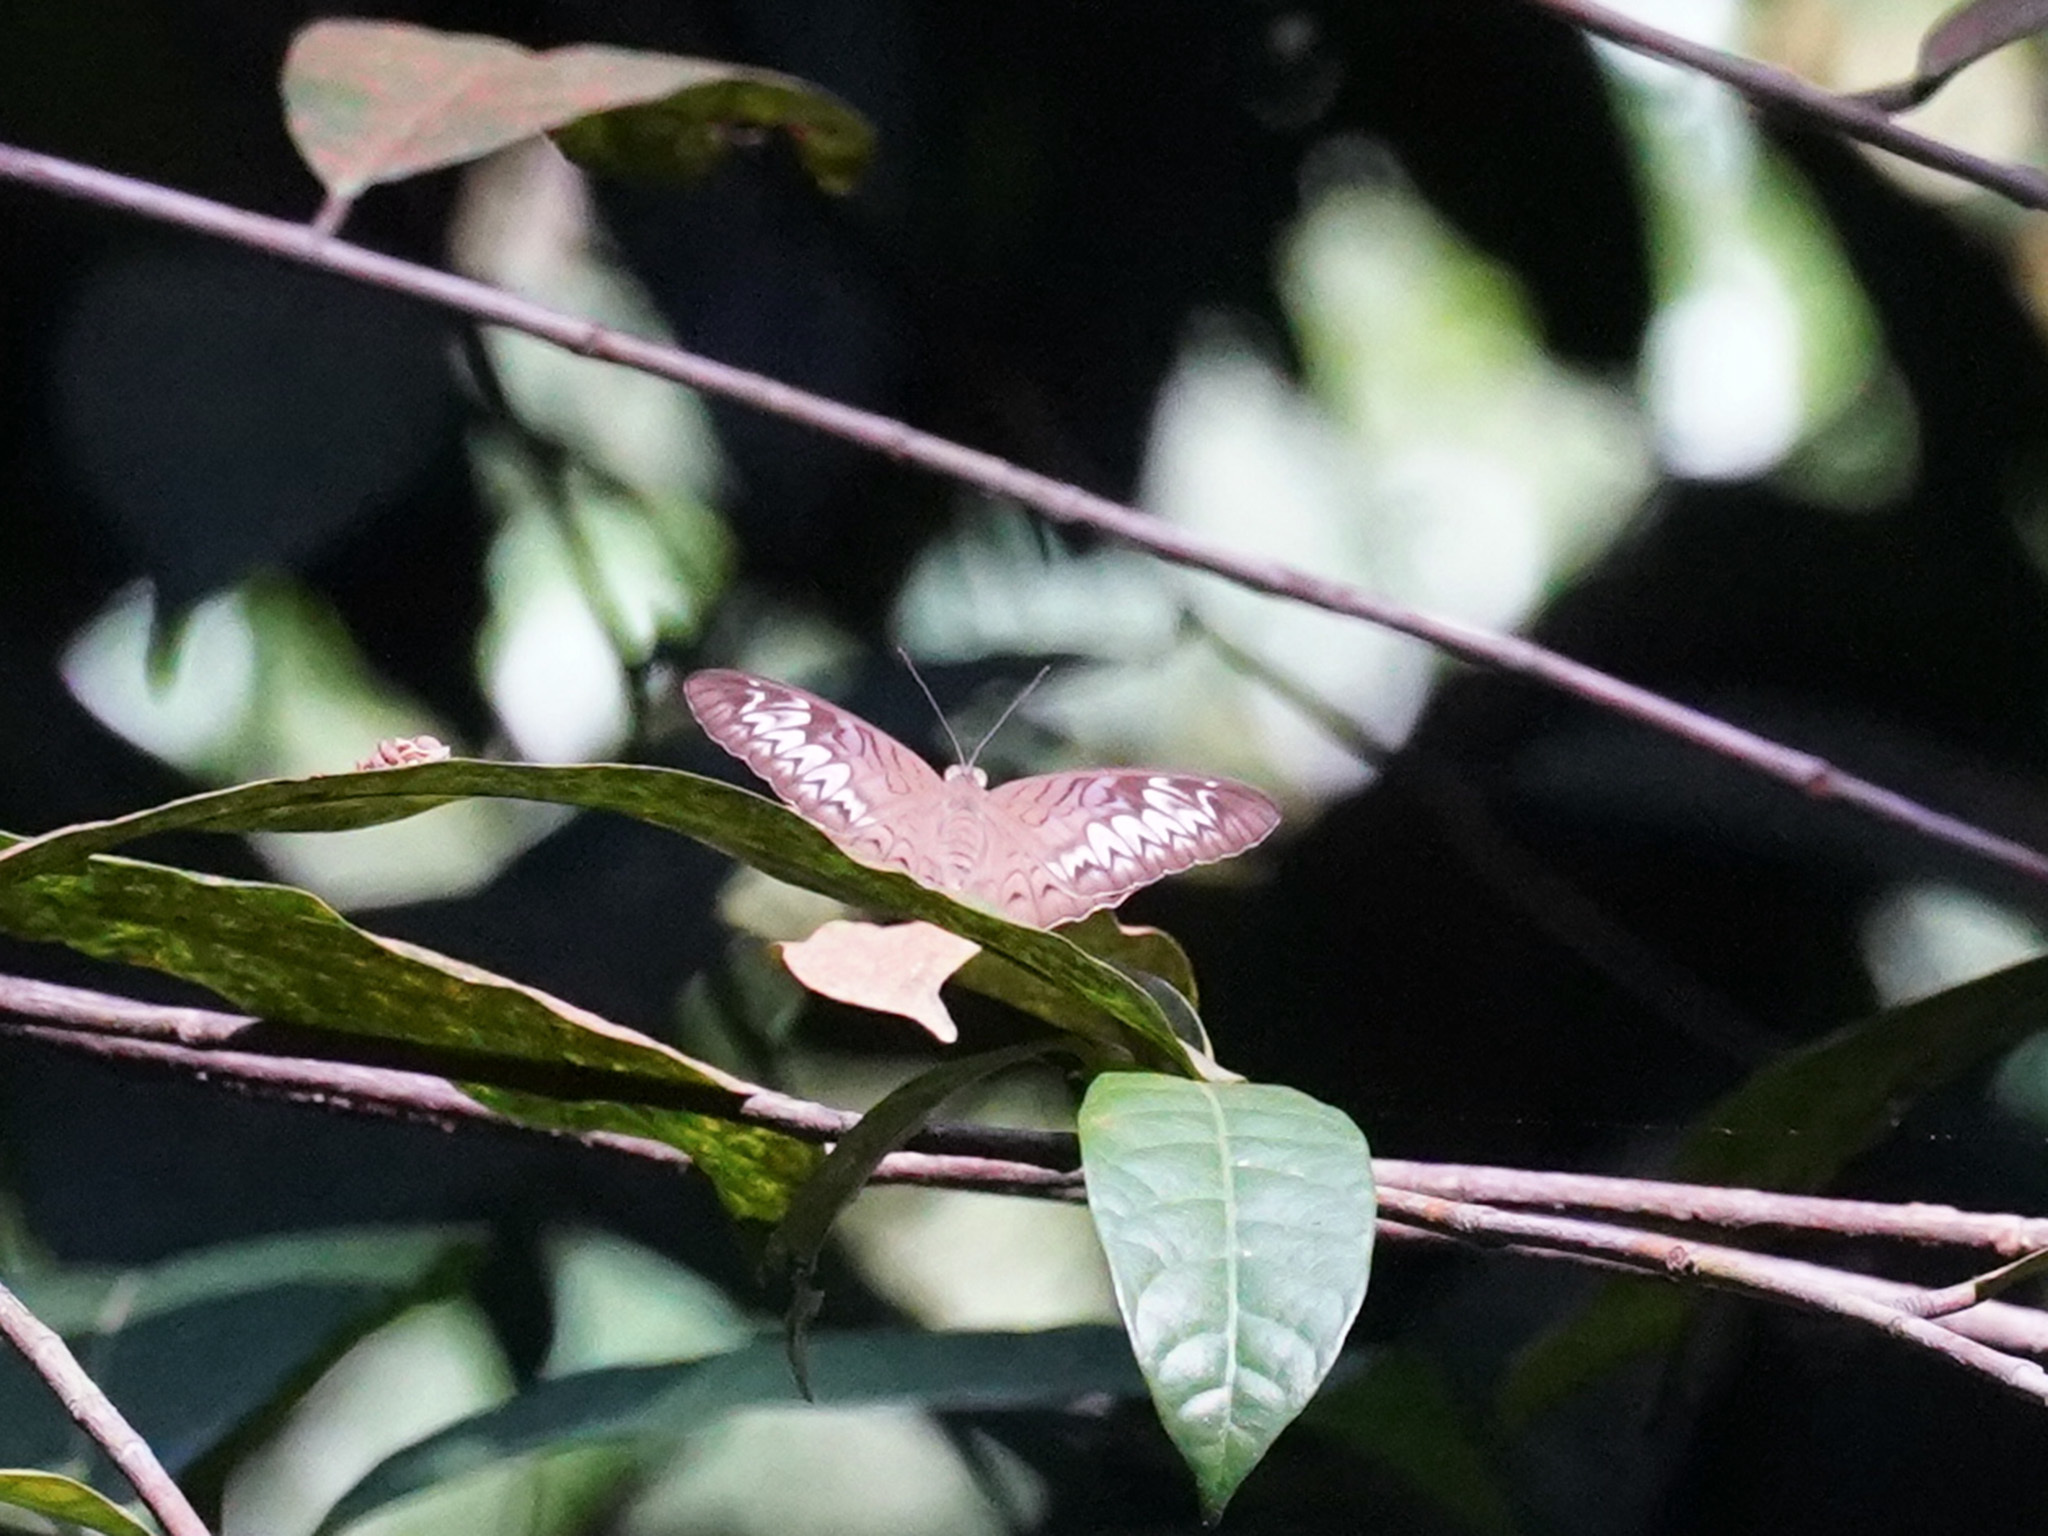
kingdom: Animalia
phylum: Arthropoda
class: Insecta
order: Lepidoptera
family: Nymphalidae
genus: Tanaecia
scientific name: Tanaecia pelea
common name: Malay viscount
